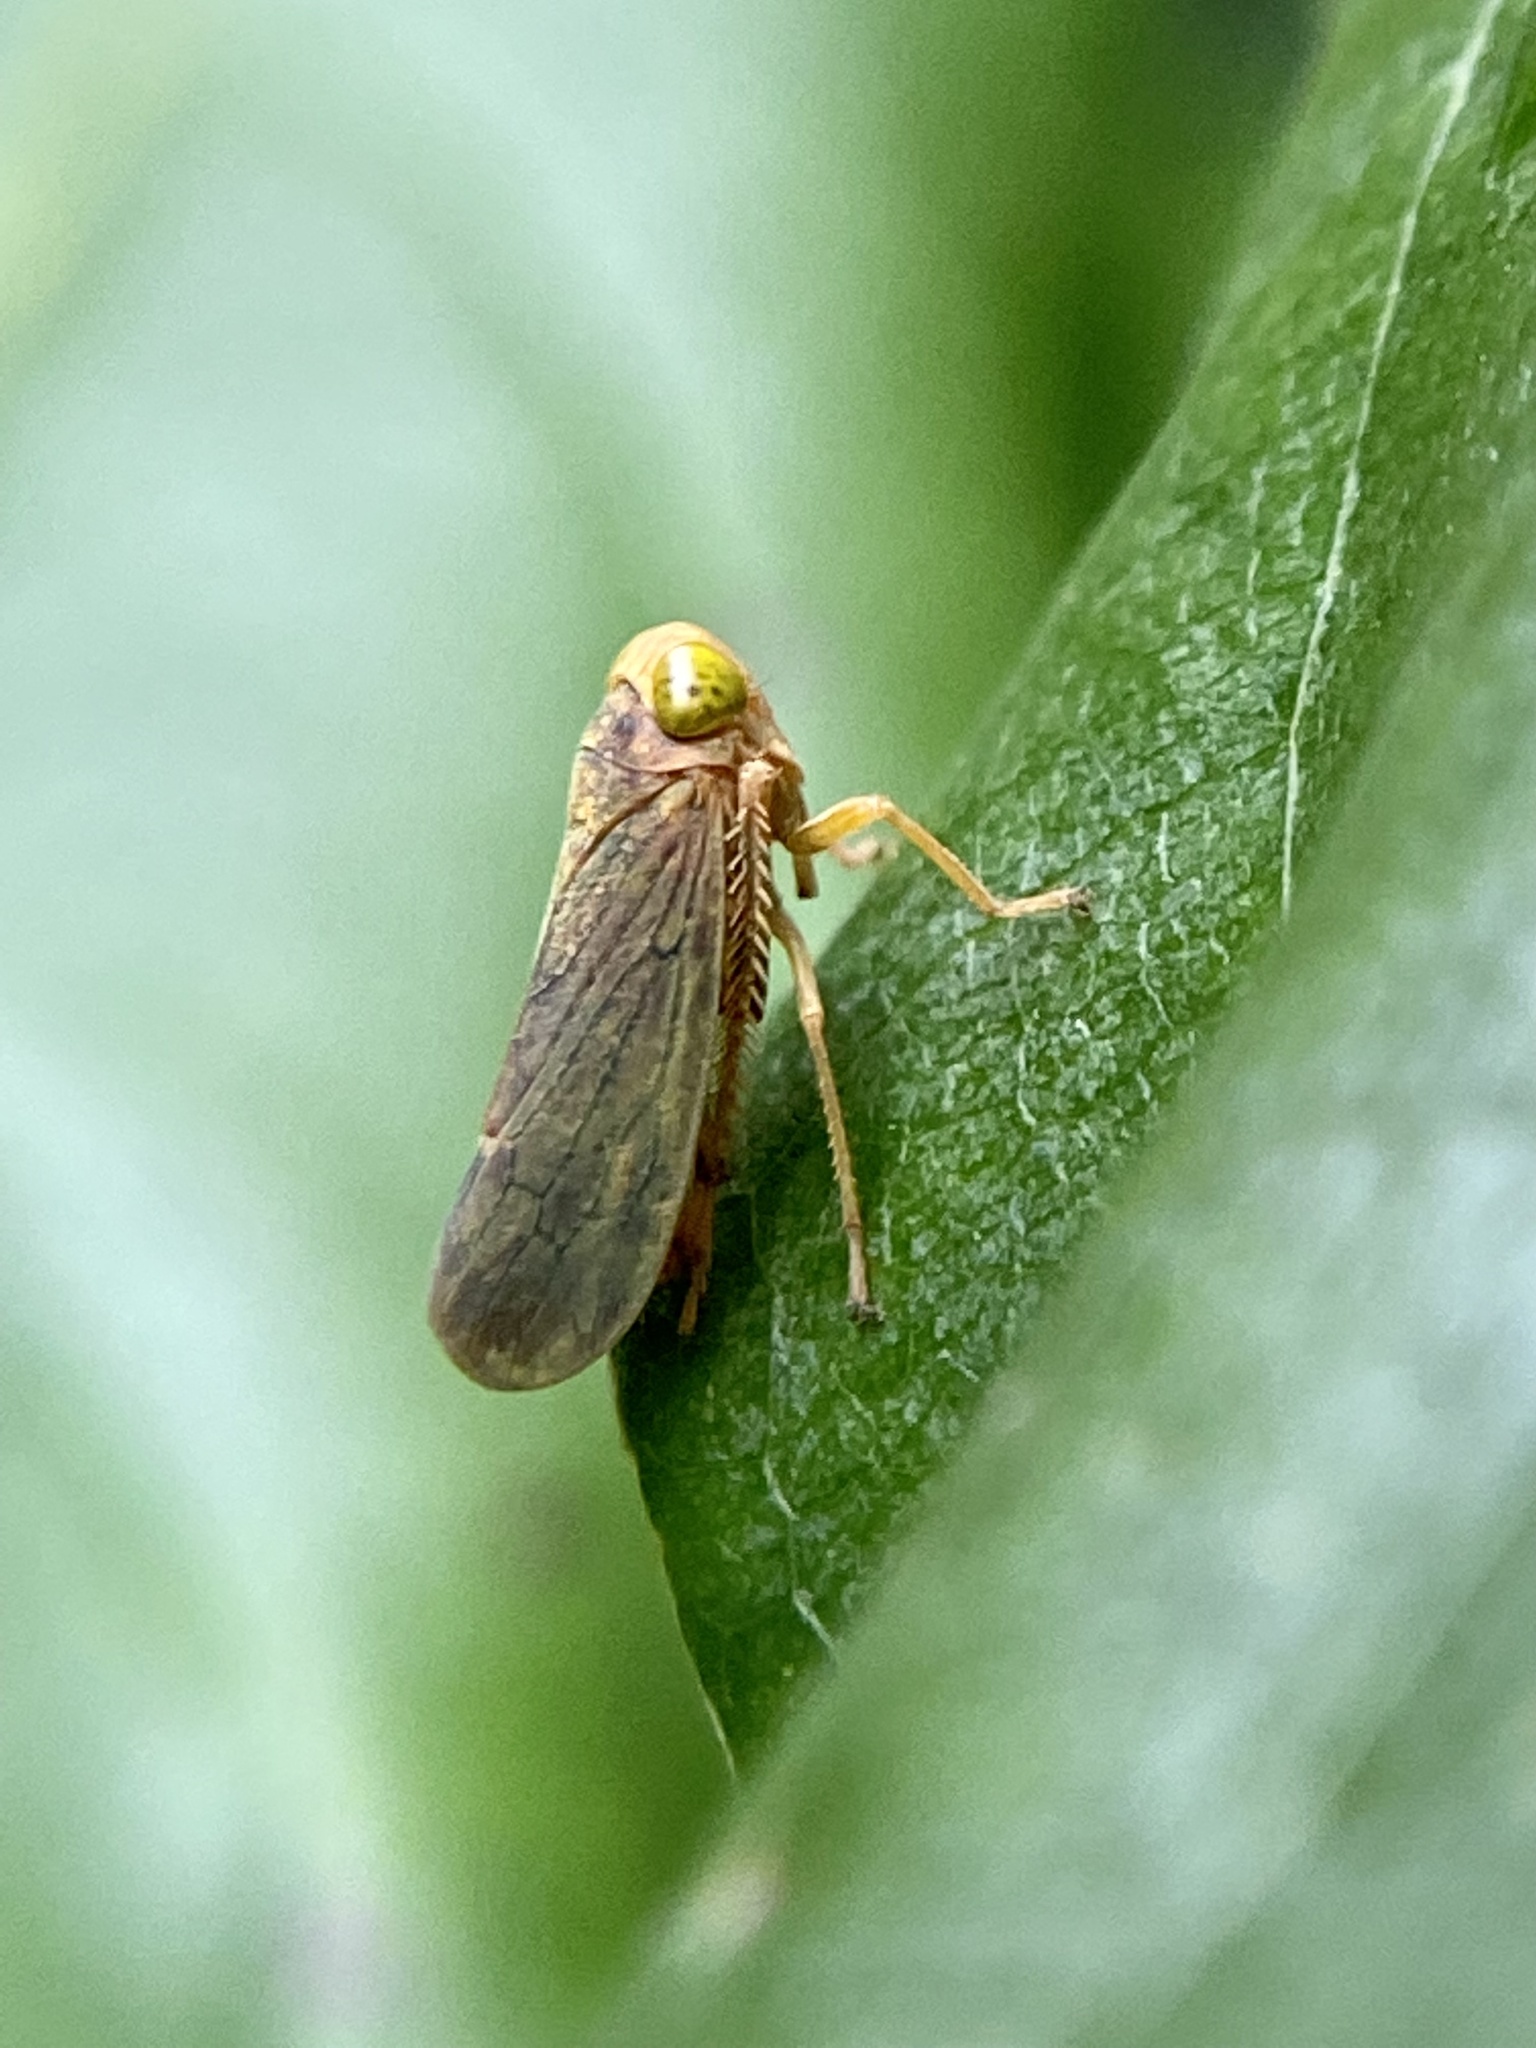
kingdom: Animalia
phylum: Arthropoda
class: Insecta
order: Hemiptera
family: Cicadellidae
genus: Jikradia
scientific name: Jikradia olitoria
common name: Coppery leafhopper
